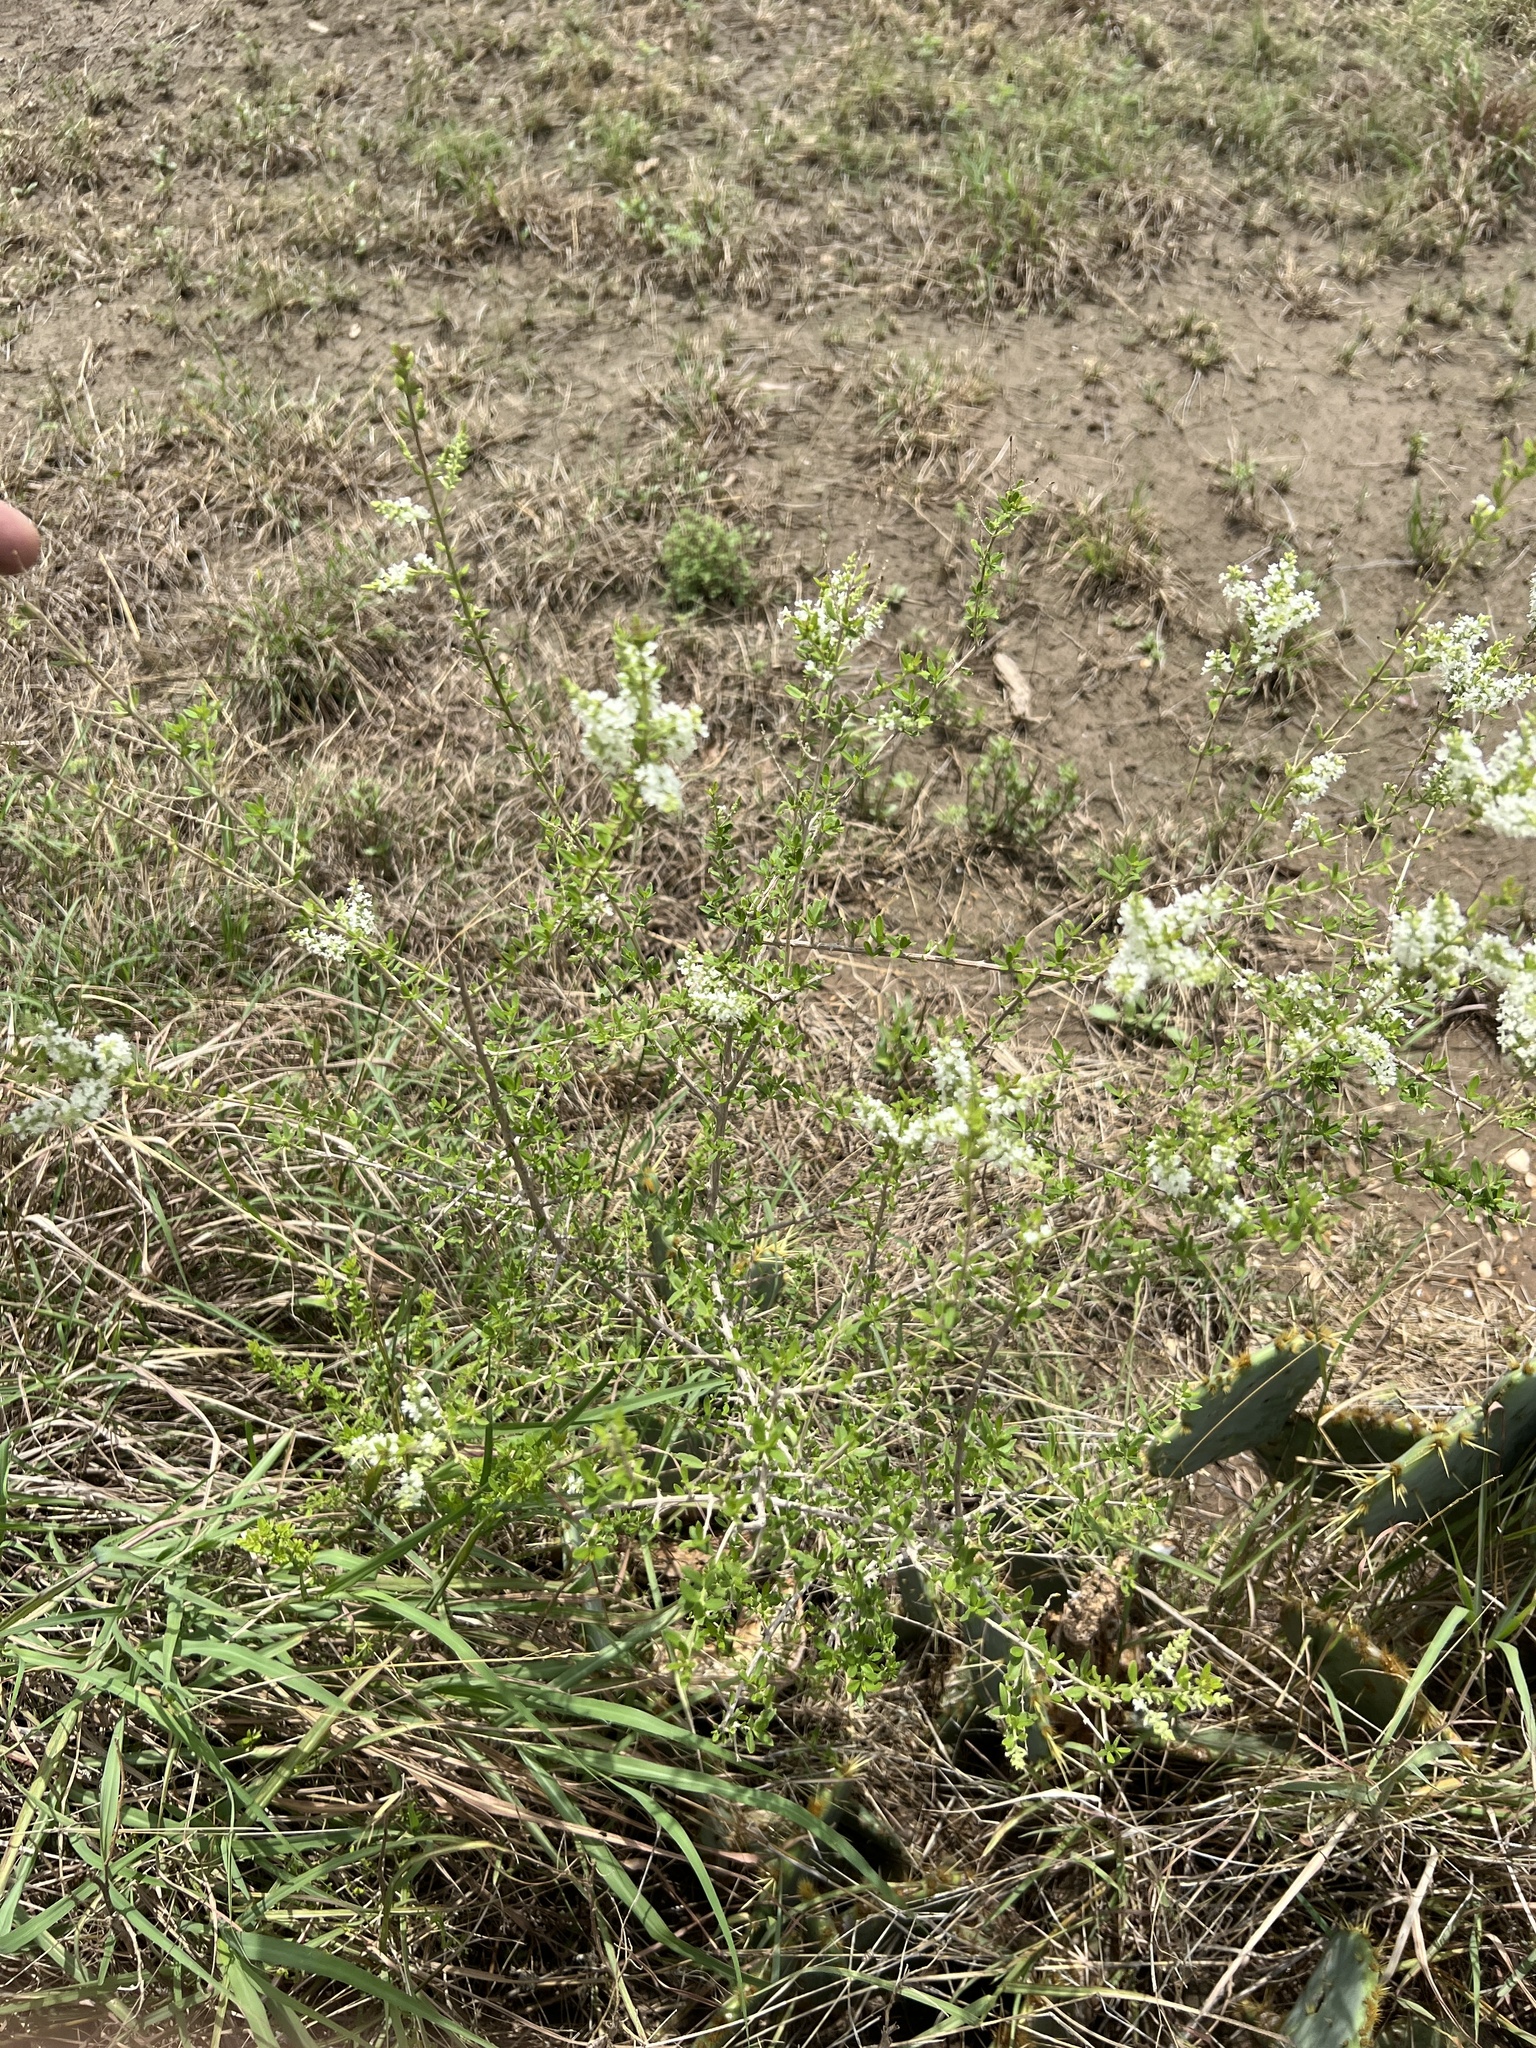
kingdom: Plantae
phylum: Tracheophyta
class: Magnoliopsida
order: Lamiales
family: Verbenaceae
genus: Aloysia
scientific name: Aloysia gratissima
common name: Common bee-brush
